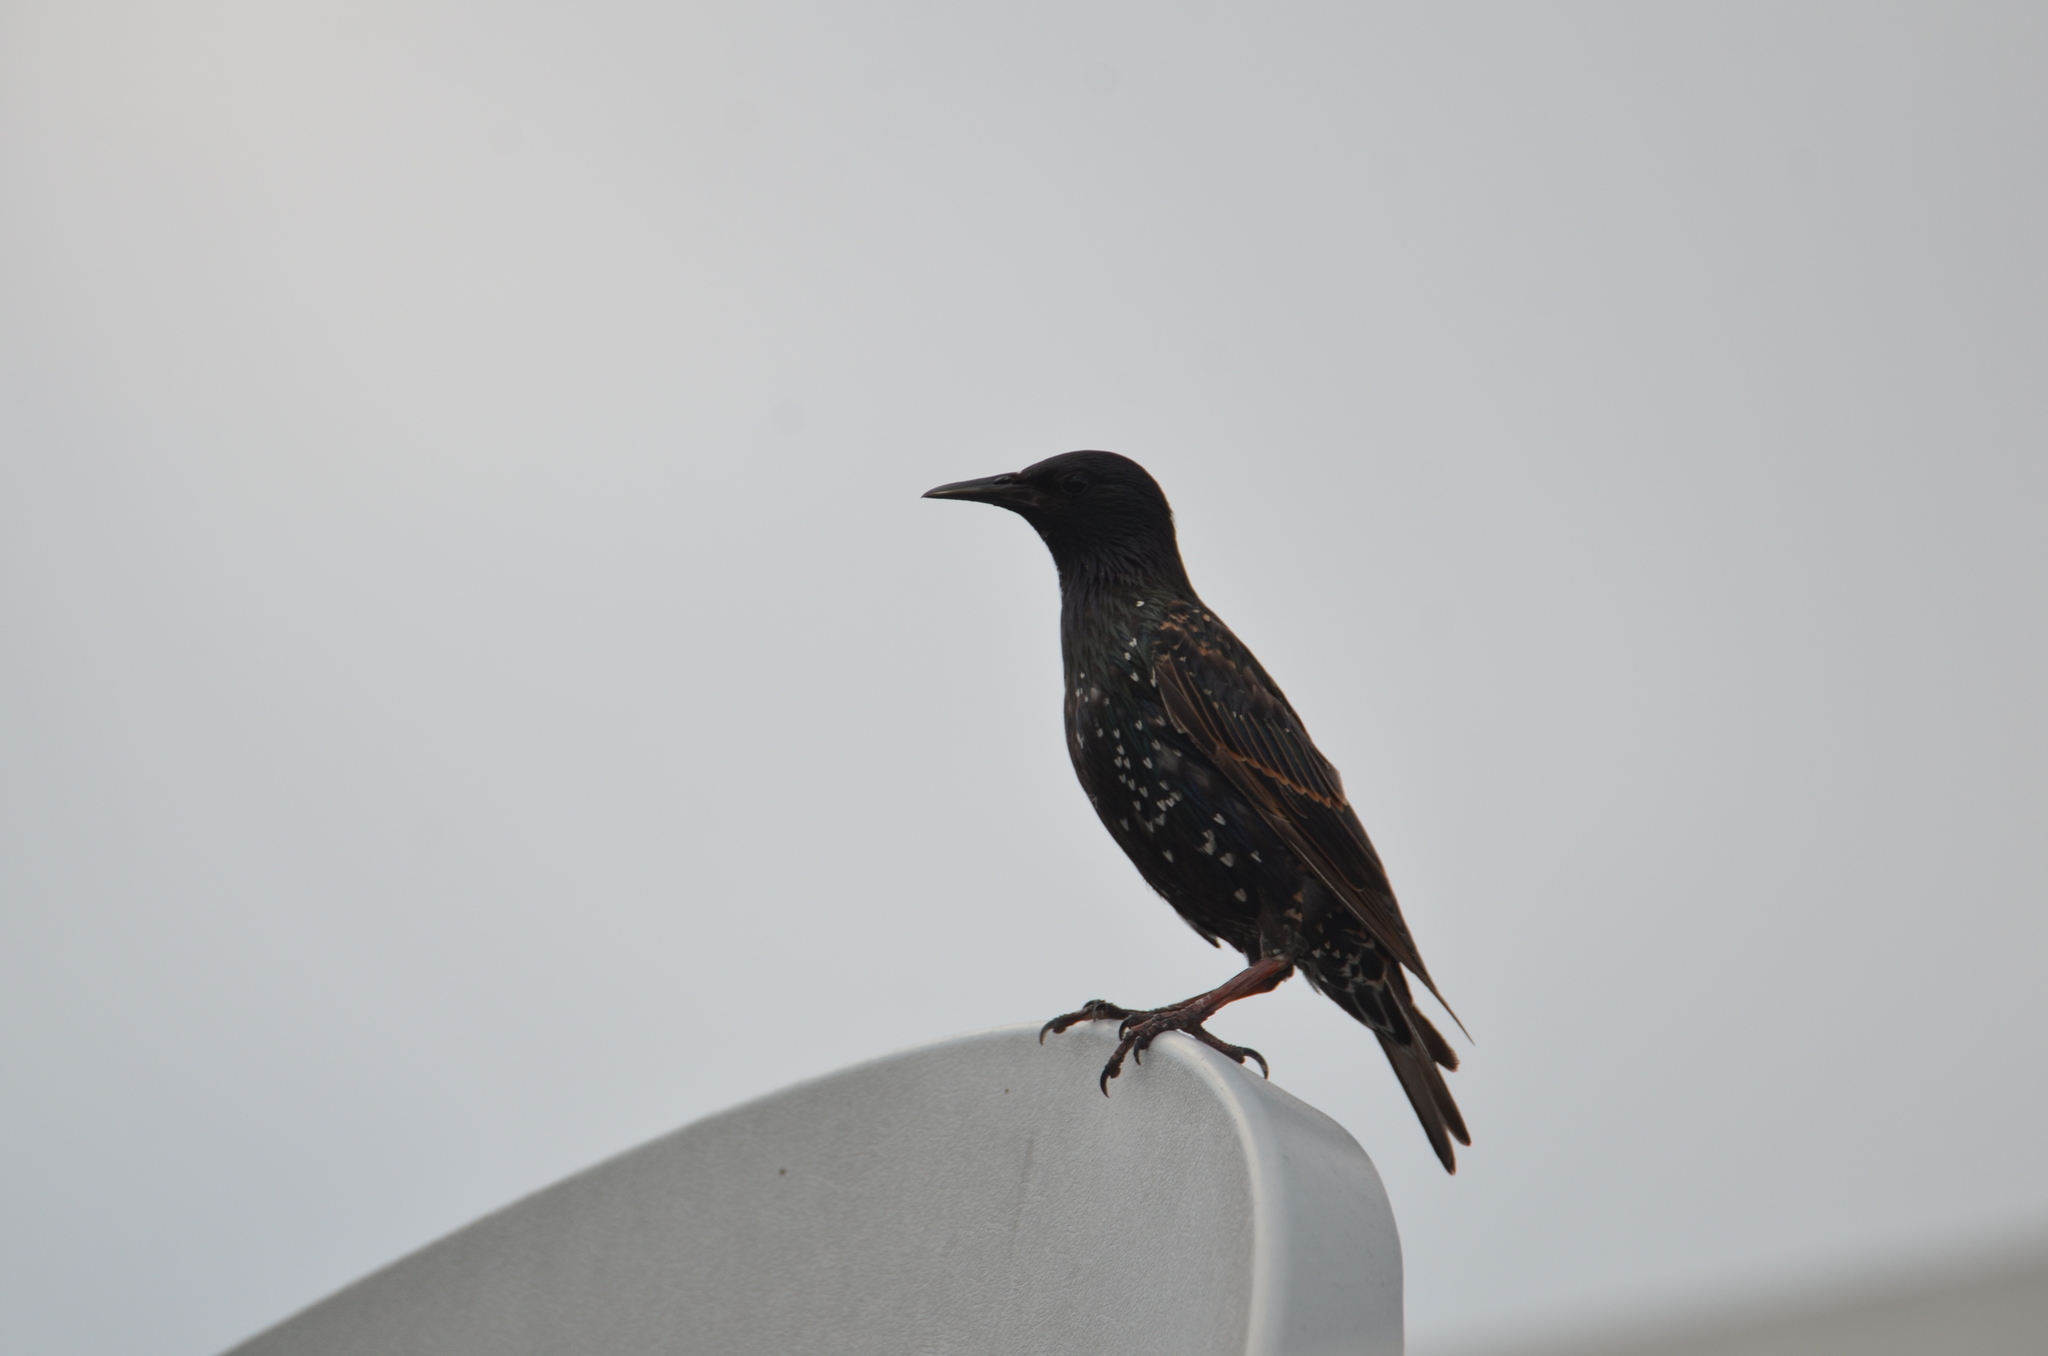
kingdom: Animalia
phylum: Chordata
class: Aves
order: Passeriformes
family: Sturnidae
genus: Sturnus
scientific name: Sturnus vulgaris
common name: Common starling
